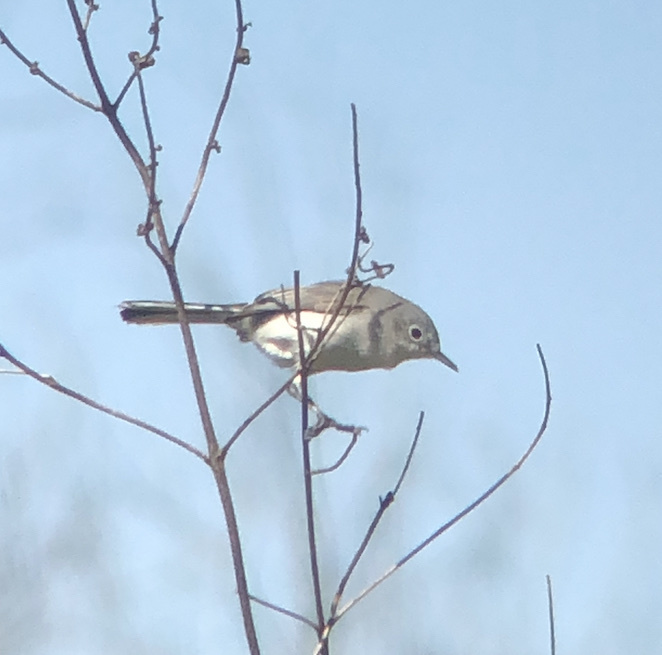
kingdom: Animalia
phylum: Chordata
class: Aves
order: Passeriformes
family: Polioptilidae
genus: Polioptila
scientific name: Polioptila caerulea
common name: Blue-gray gnatcatcher
